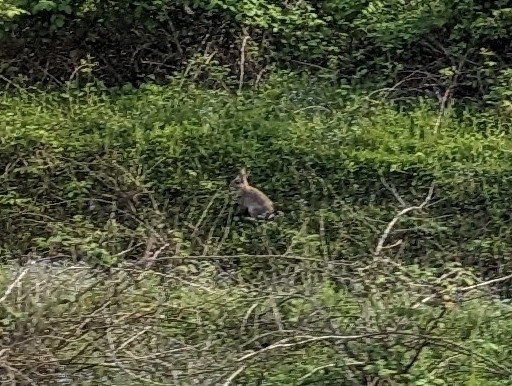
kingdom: Animalia
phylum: Chordata
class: Mammalia
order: Lagomorpha
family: Leporidae
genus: Oryctolagus
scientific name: Oryctolagus cuniculus
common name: European rabbit
